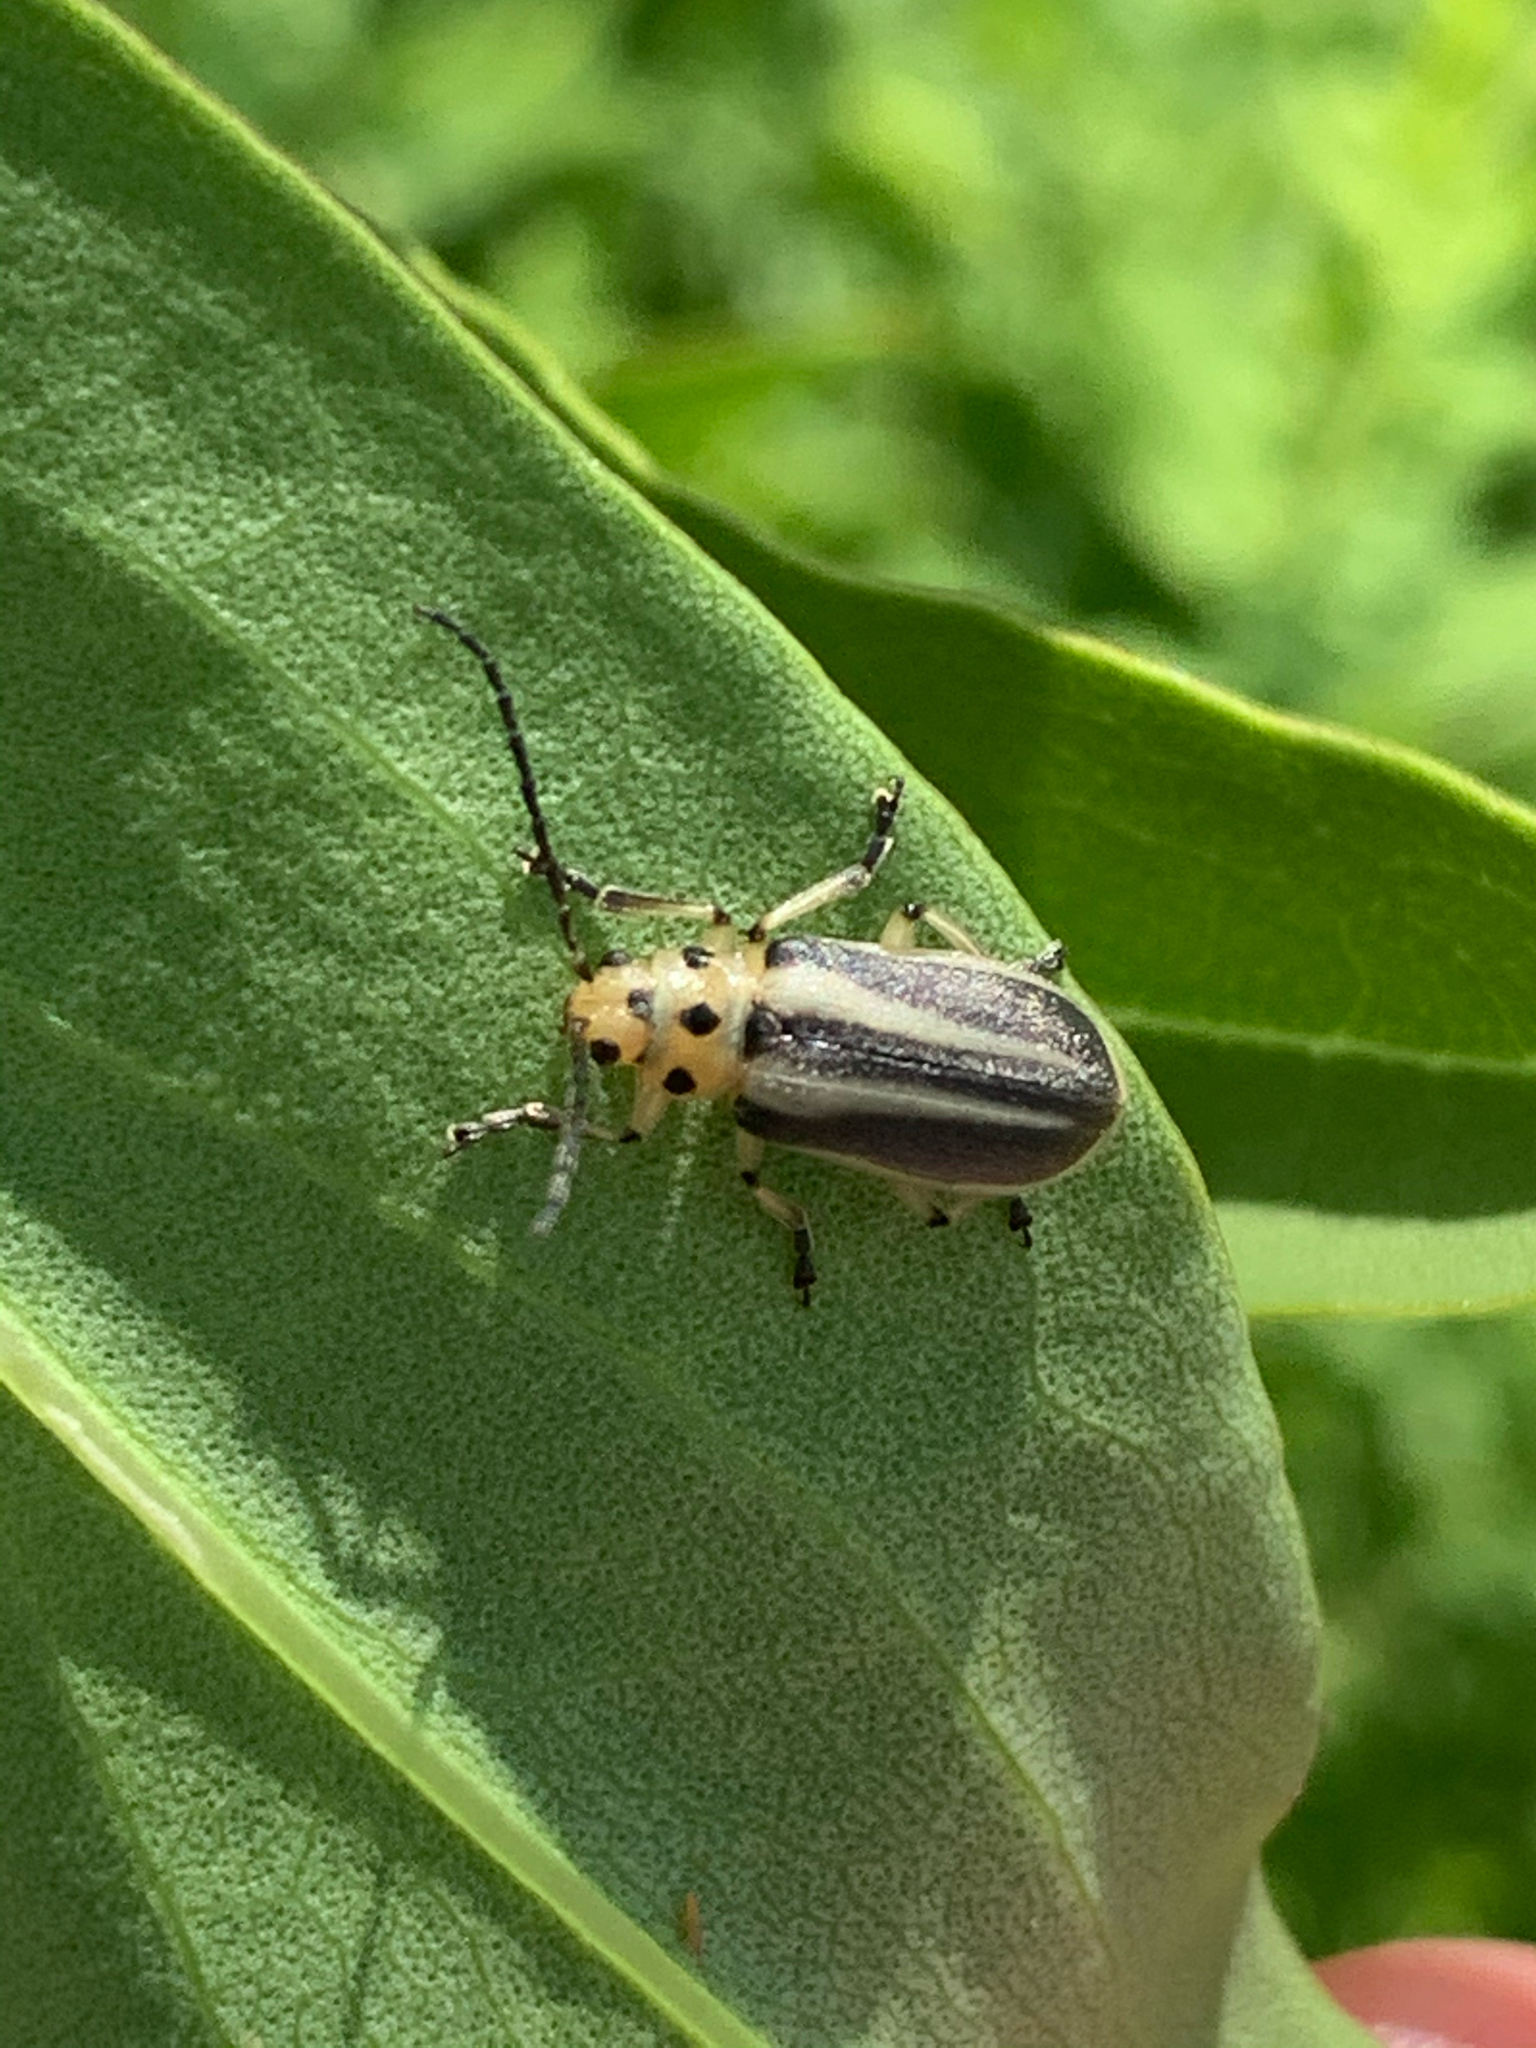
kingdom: Animalia
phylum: Arthropoda
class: Insecta
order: Coleoptera
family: Chrysomelidae
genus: Trirhabda
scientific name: Trirhabda bacharidis
